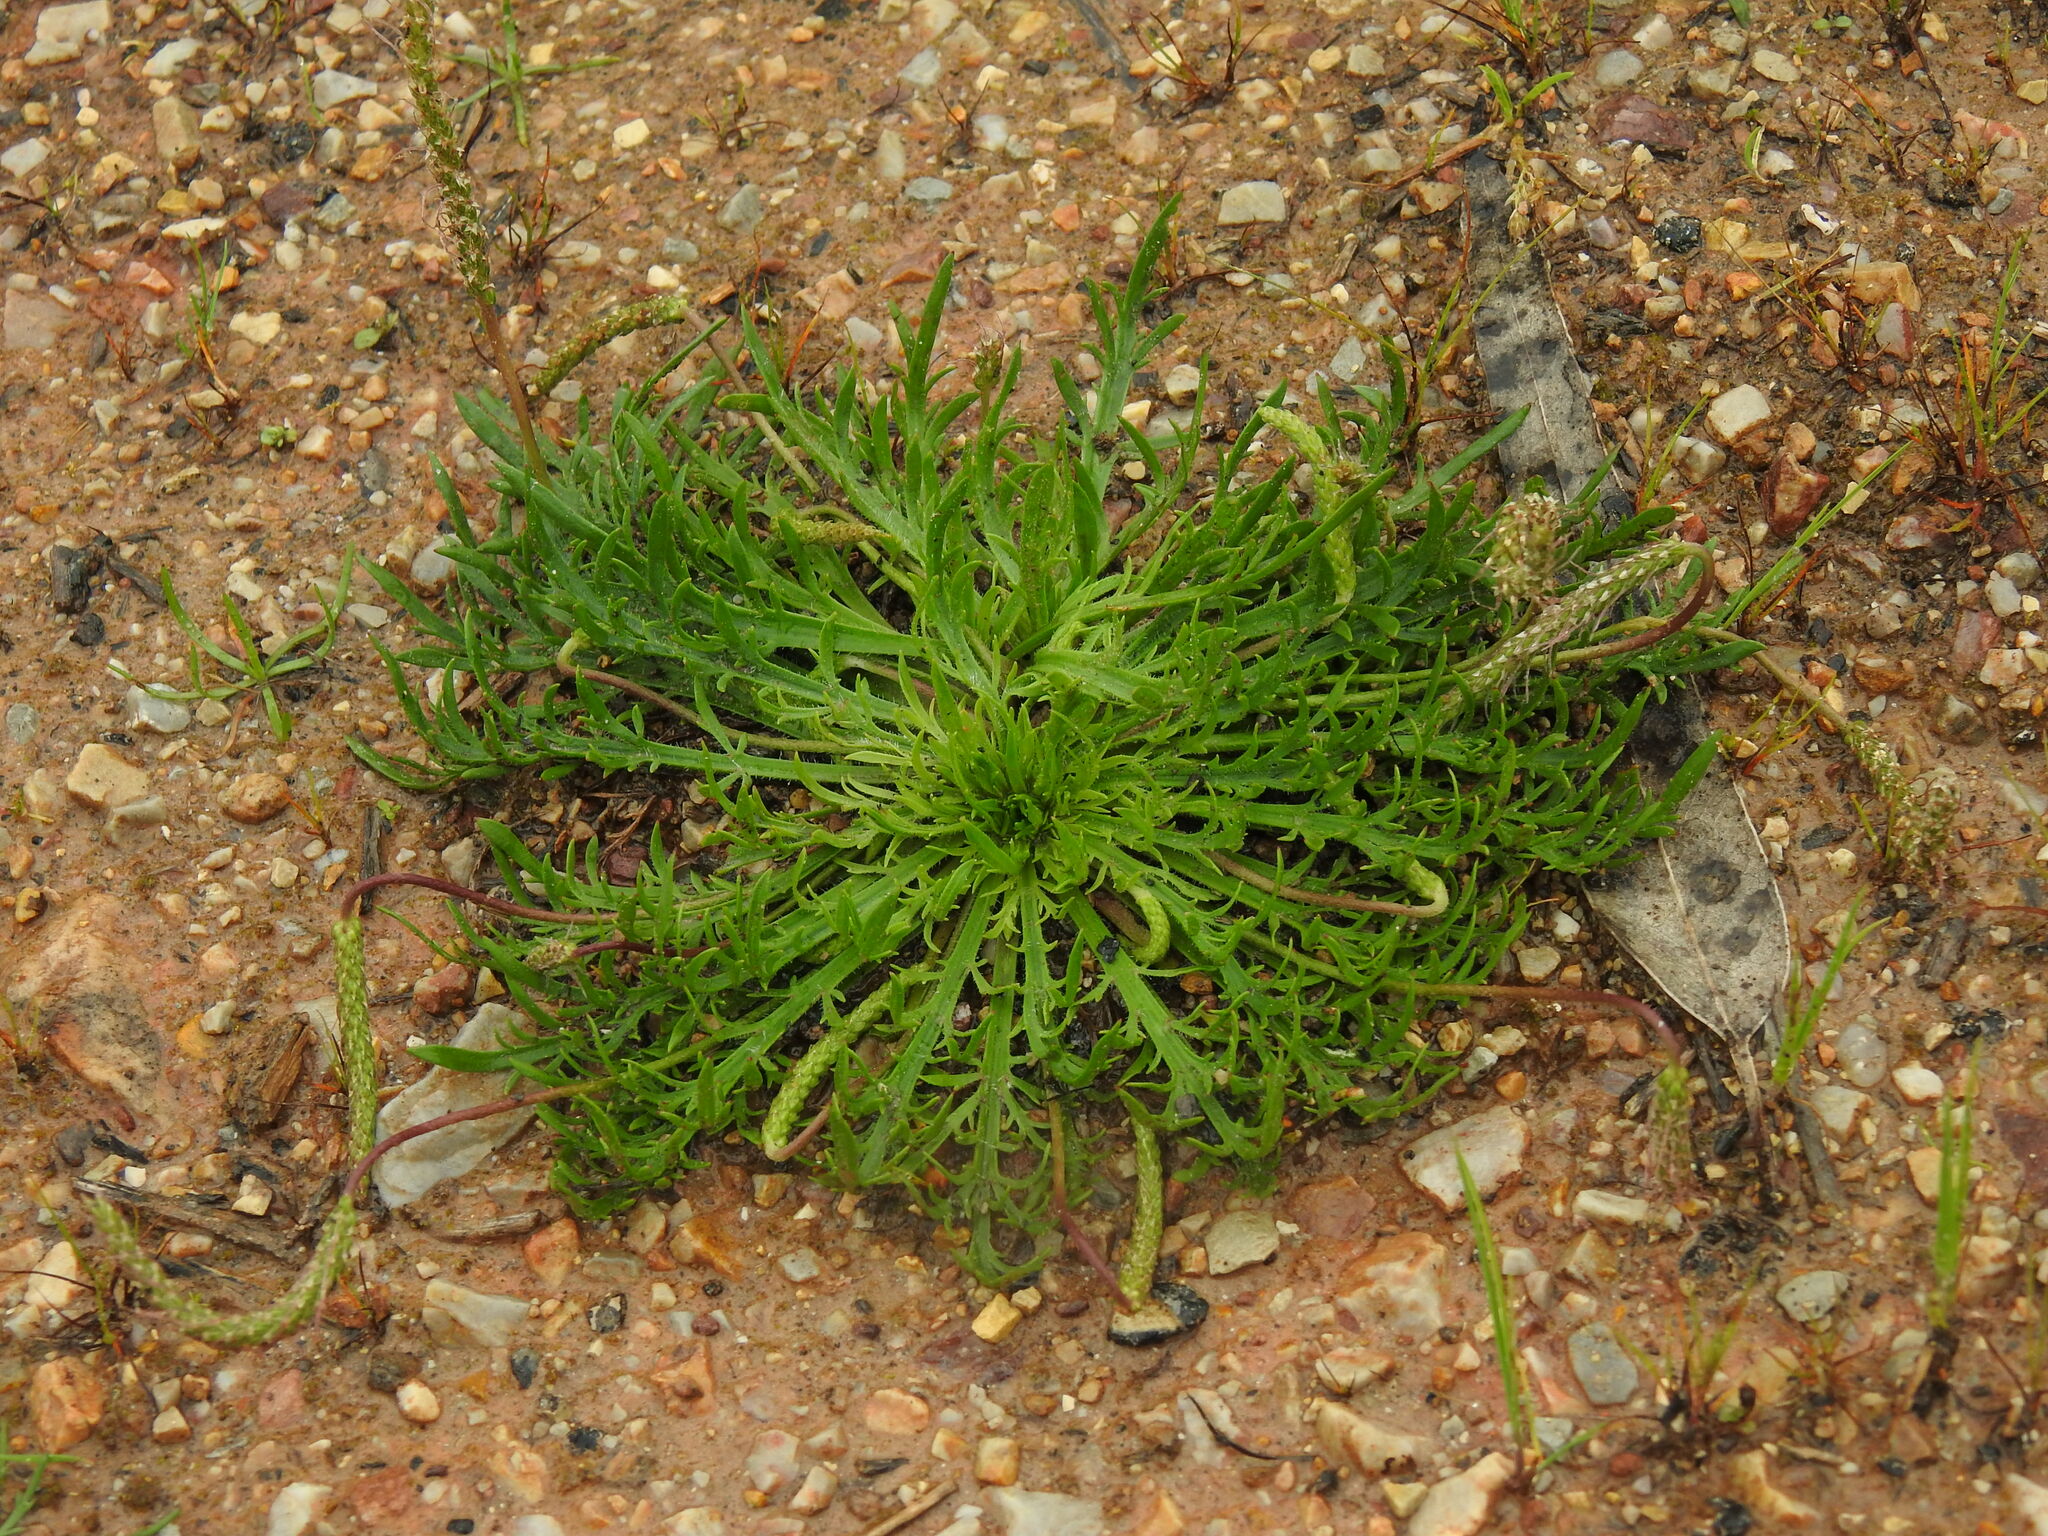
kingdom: Plantae
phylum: Tracheophyta
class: Magnoliopsida
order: Lamiales
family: Plantaginaceae
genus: Plantago
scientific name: Plantago coronopus
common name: Buck's-horn plantain
